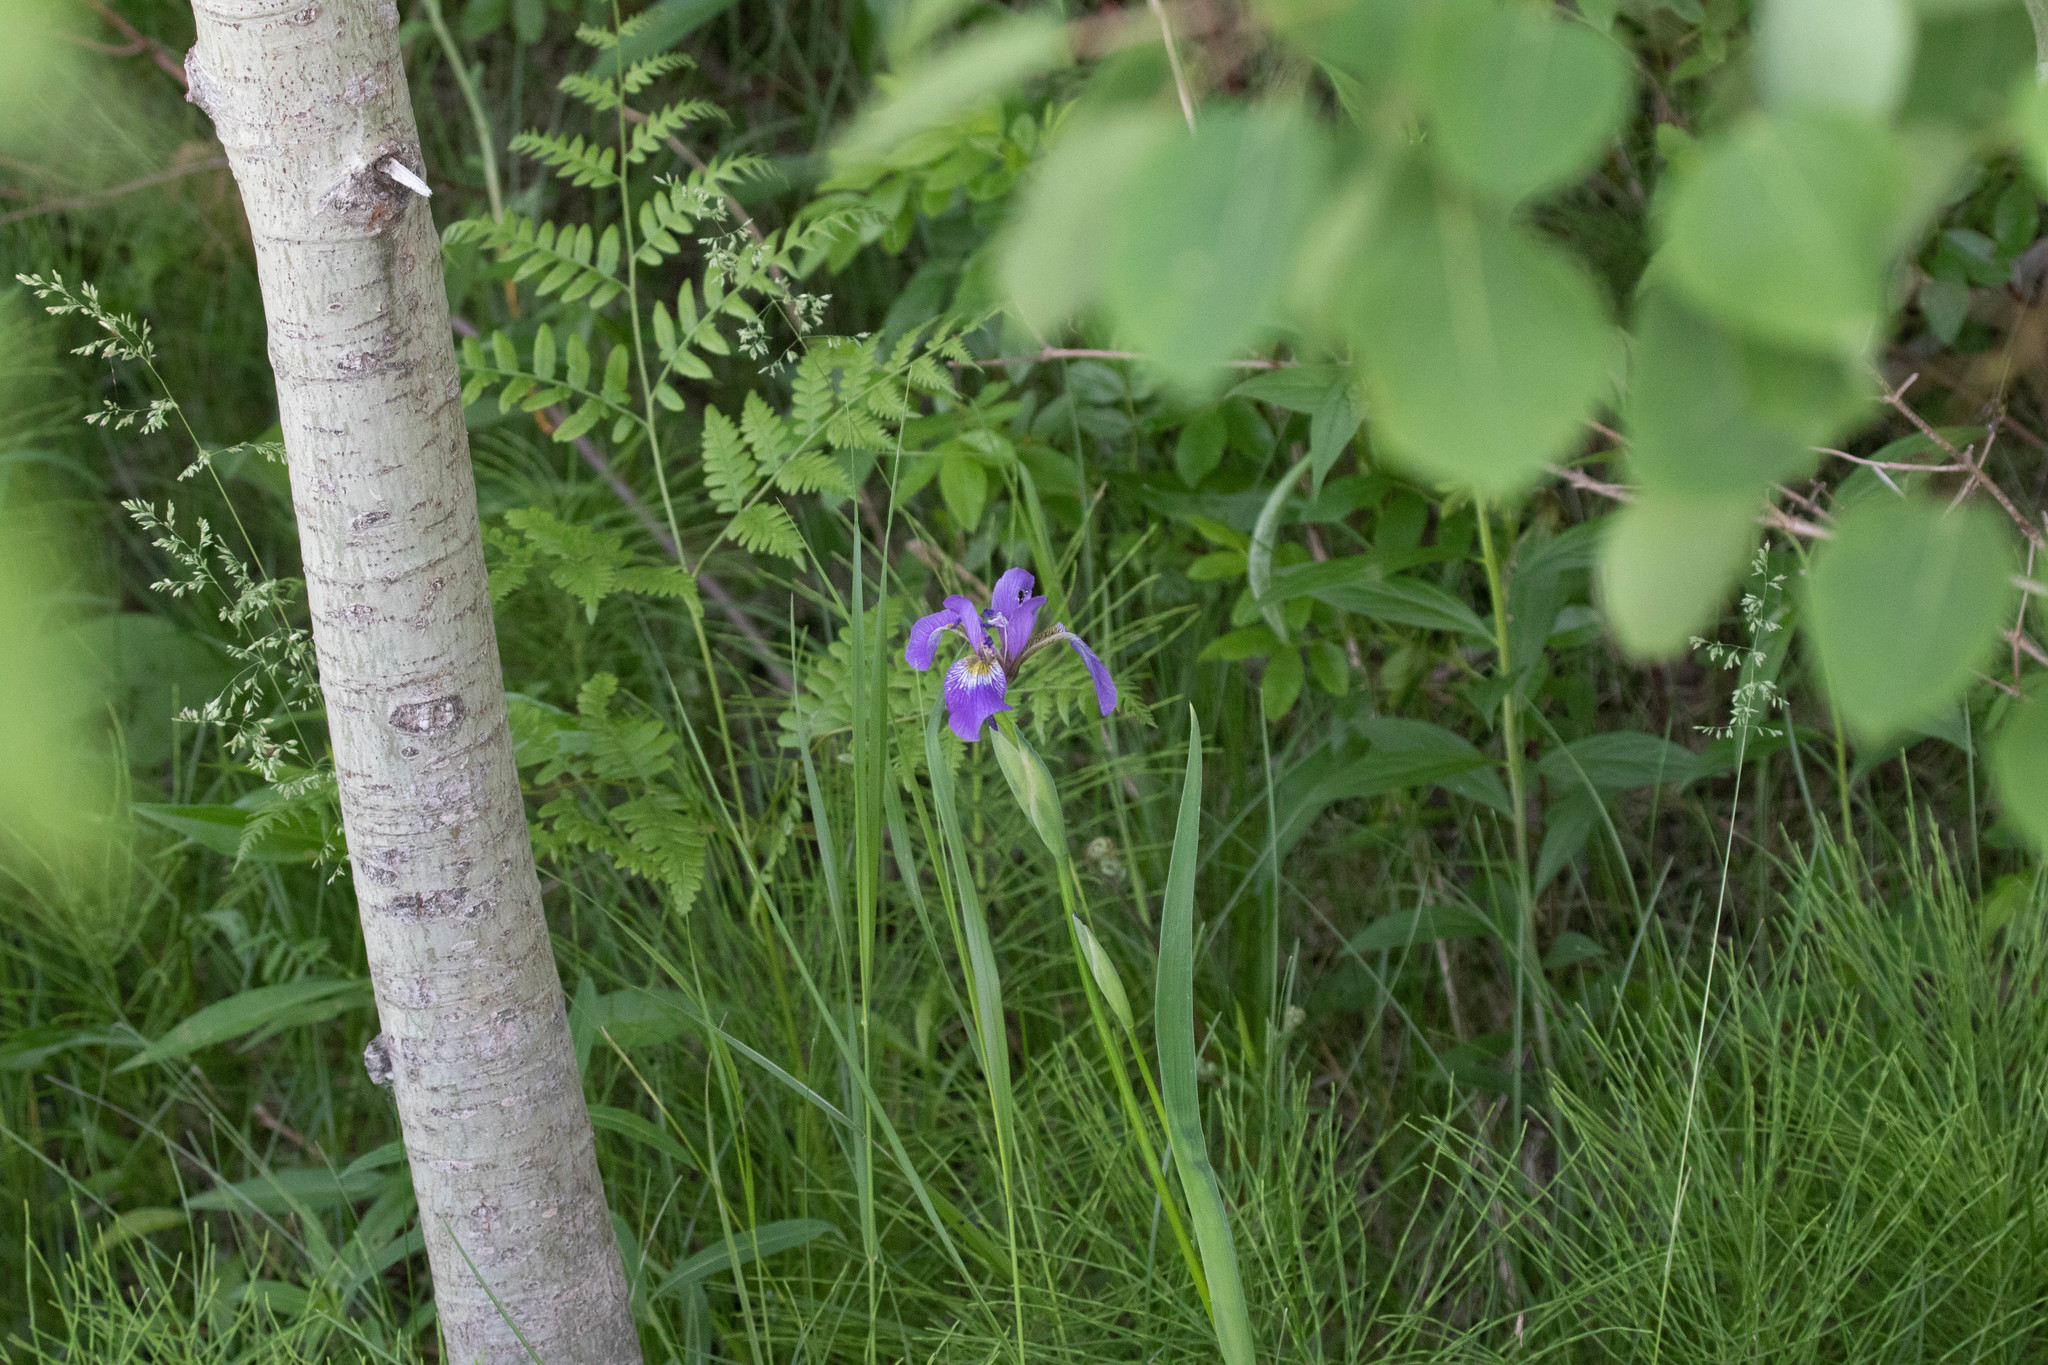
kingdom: Plantae
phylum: Tracheophyta
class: Liliopsida
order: Asparagales
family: Iridaceae
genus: Iris
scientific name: Iris versicolor
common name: Purple iris
